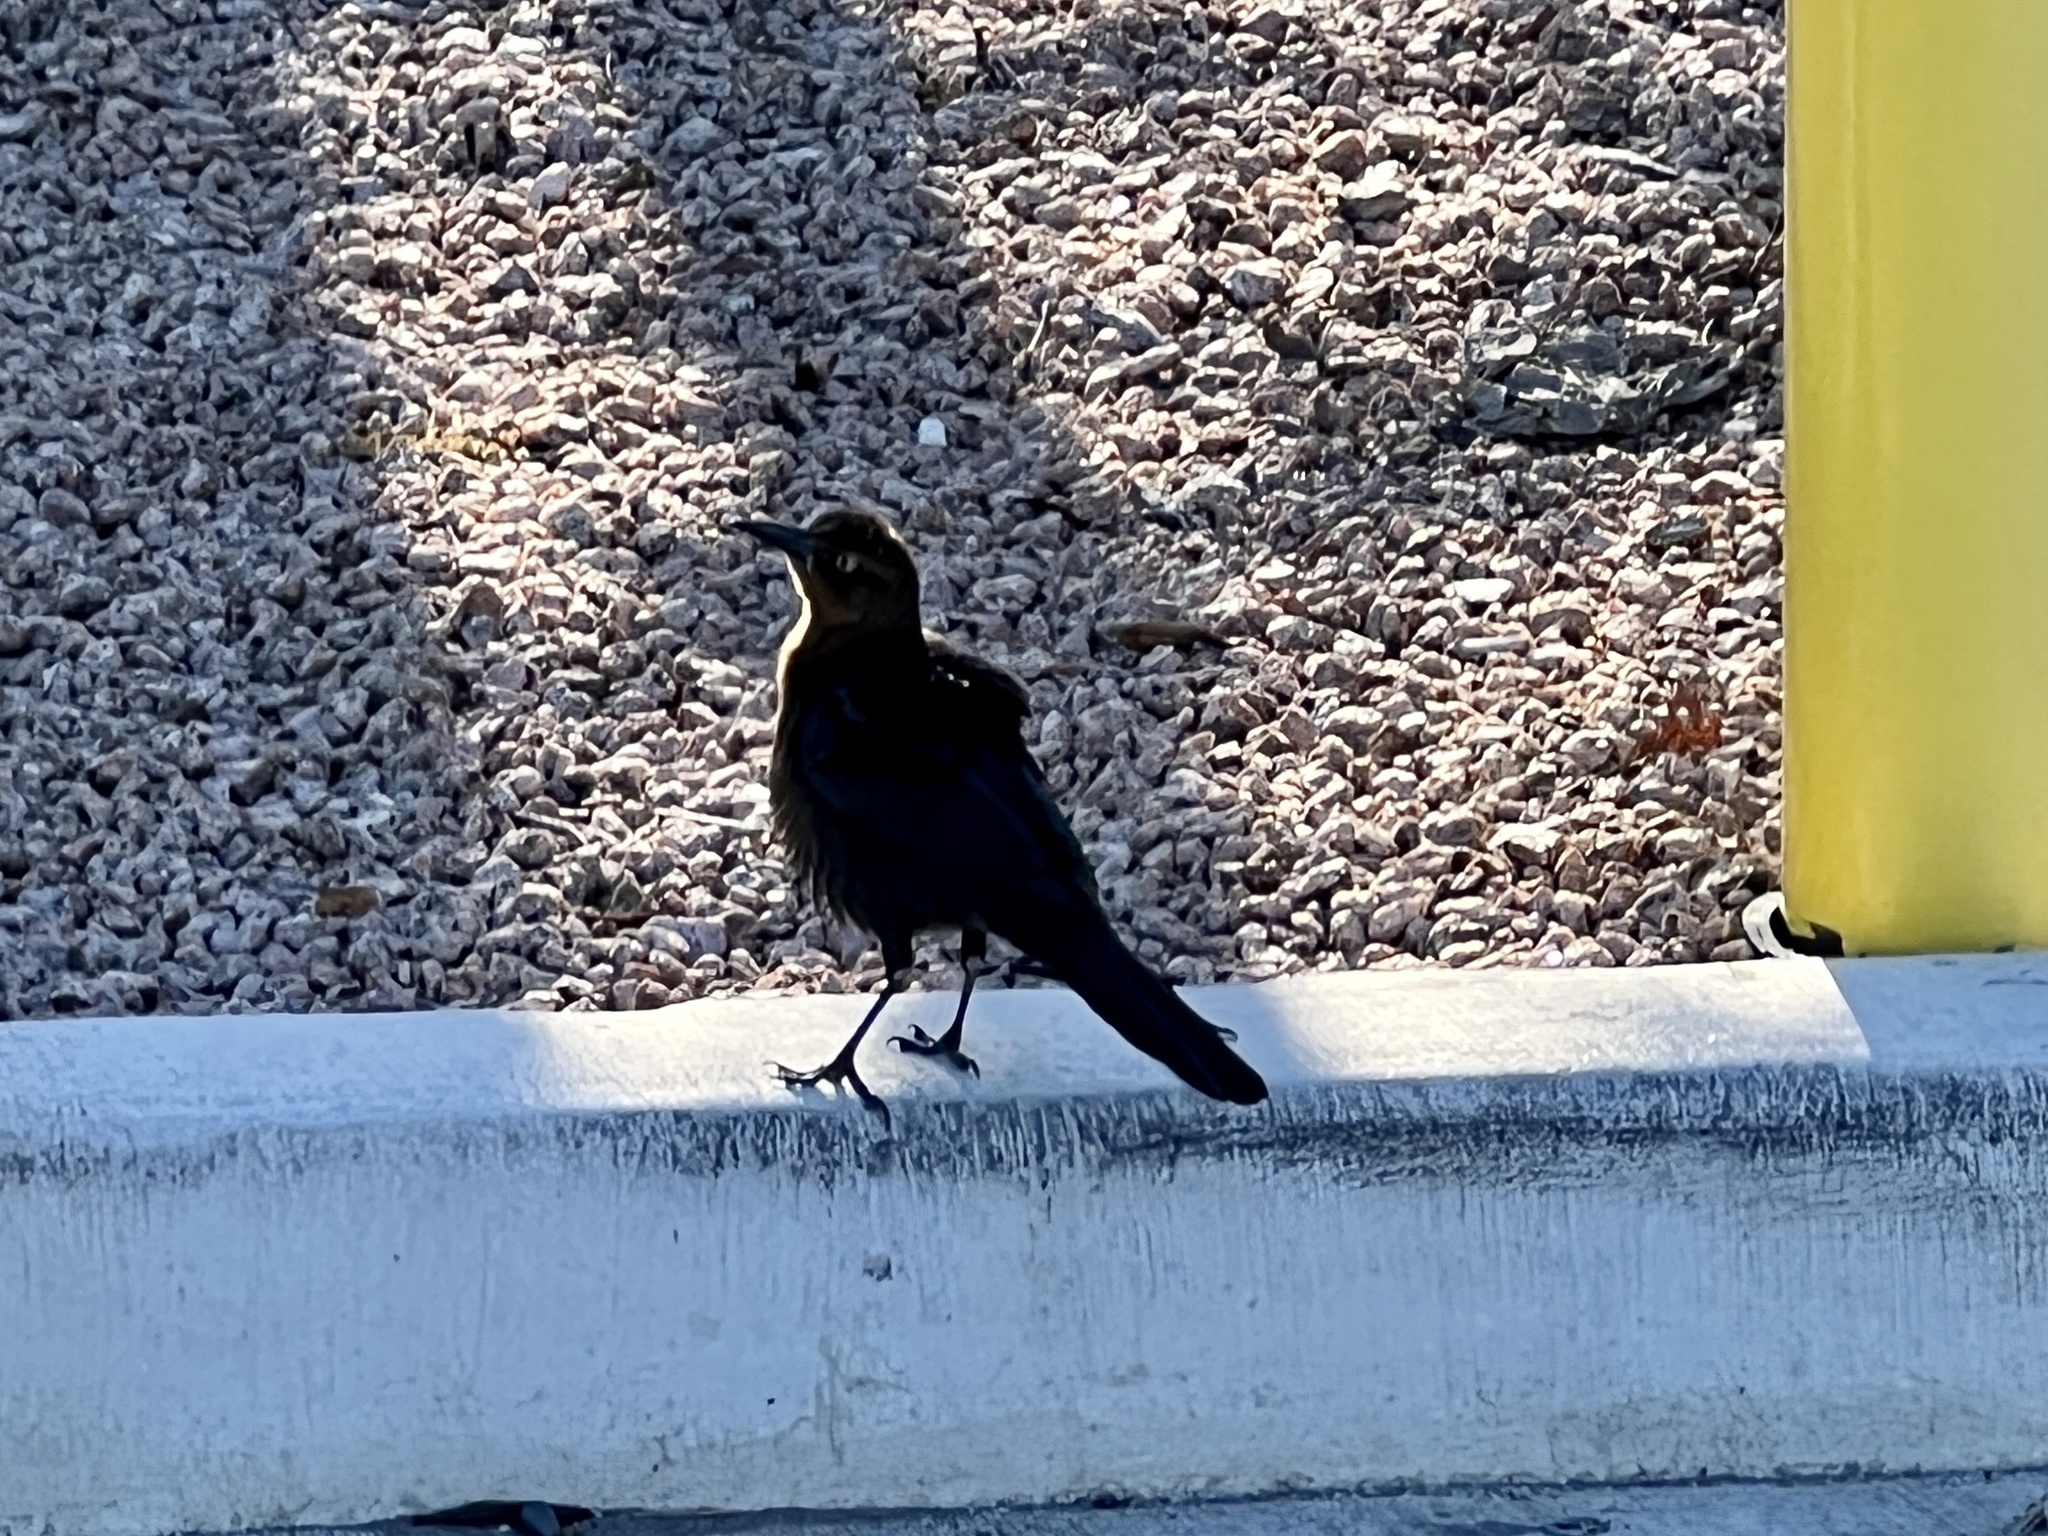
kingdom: Animalia
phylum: Chordata
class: Aves
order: Passeriformes
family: Icteridae
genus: Quiscalus
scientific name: Quiscalus mexicanus
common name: Great-tailed grackle
